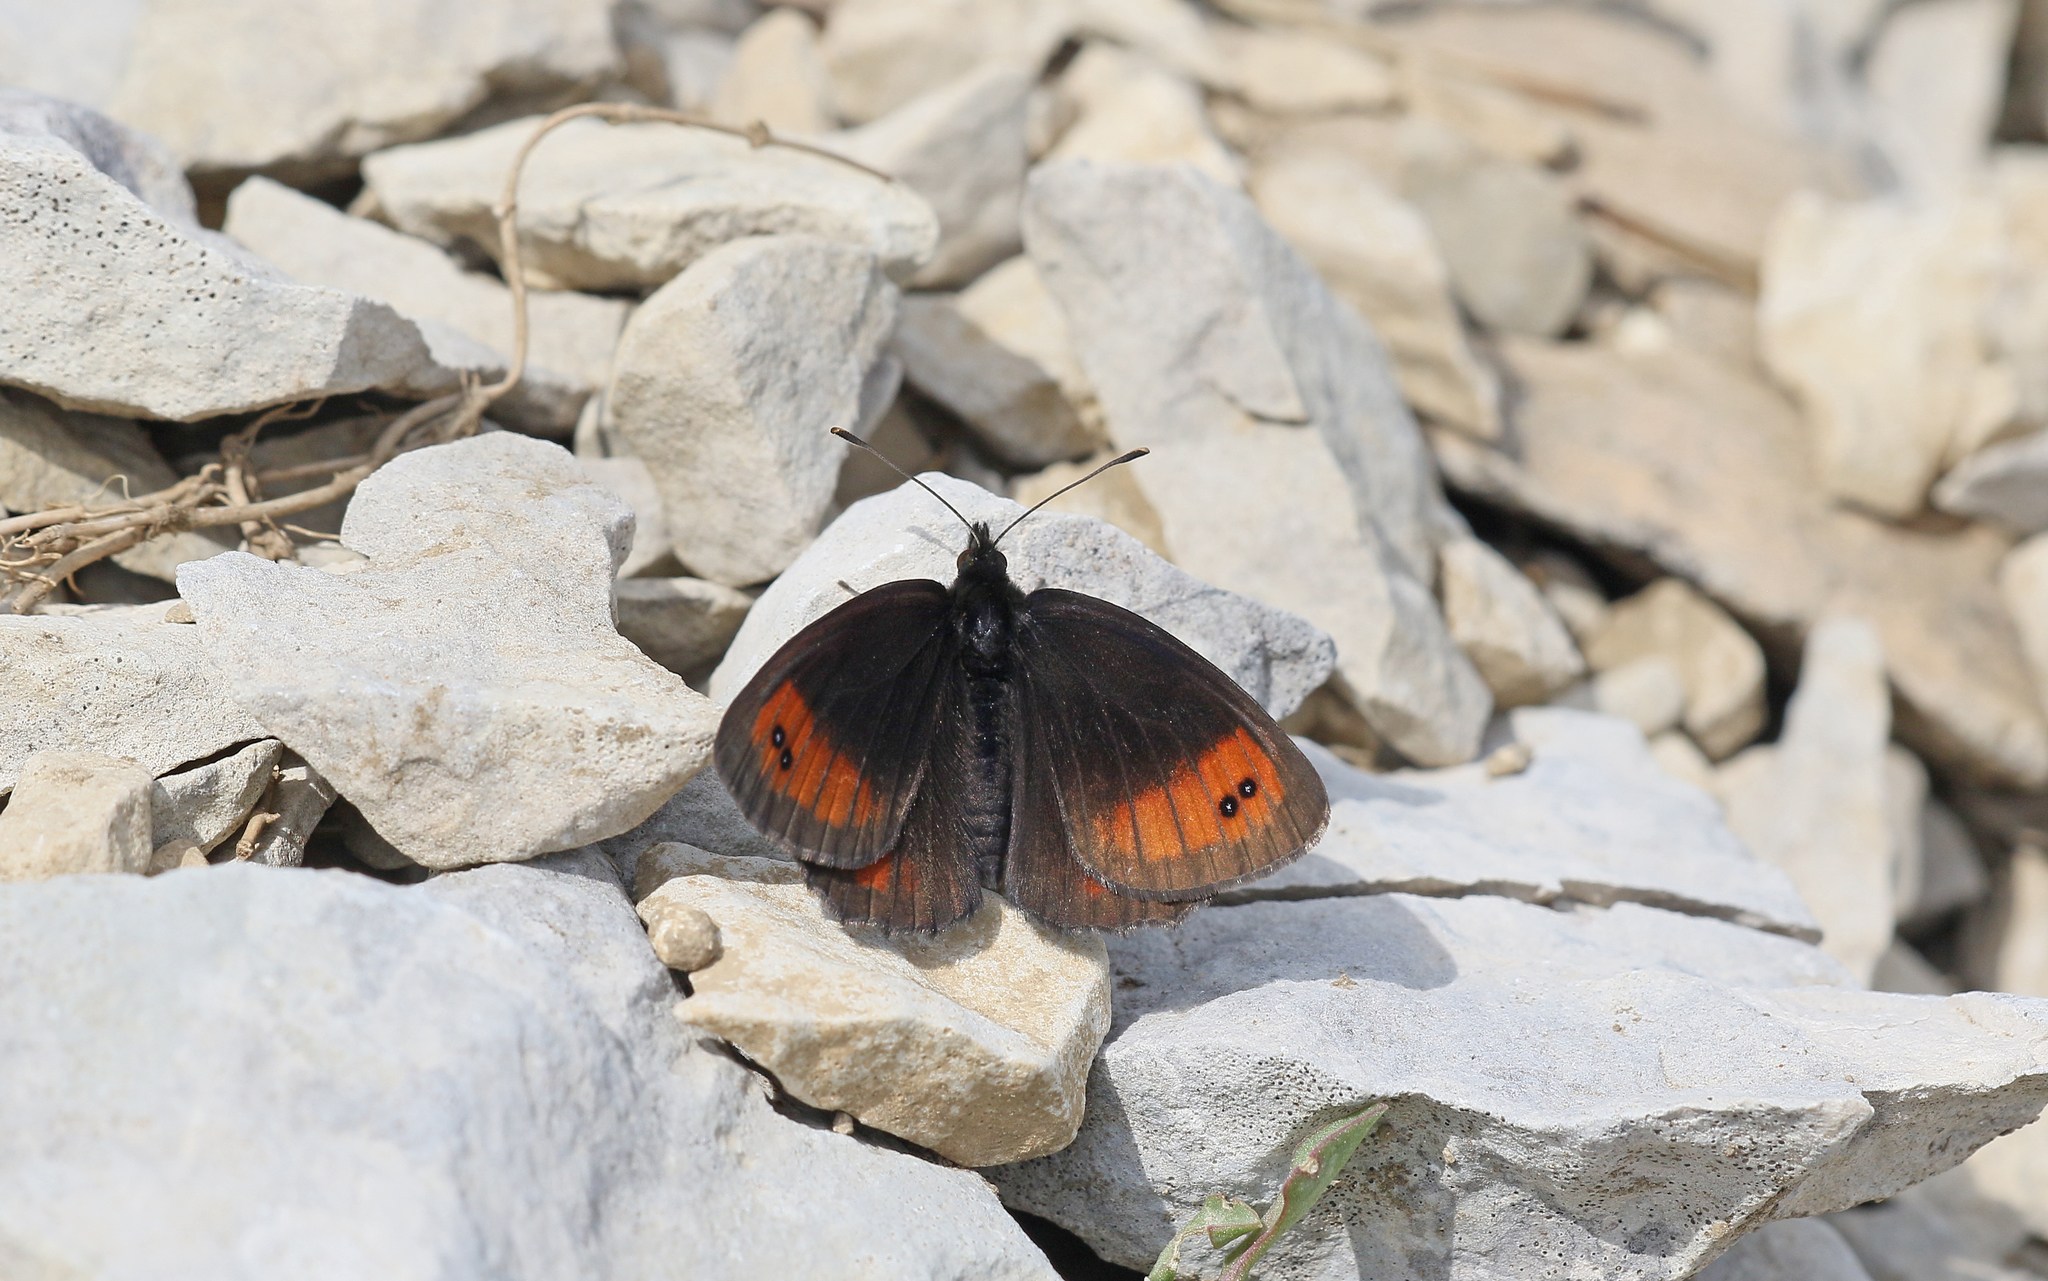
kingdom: Animalia
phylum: Arthropoda
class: Insecta
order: Lepidoptera
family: Nymphalidae
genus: Erebia
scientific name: Erebia scipio
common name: Larche ringlet
